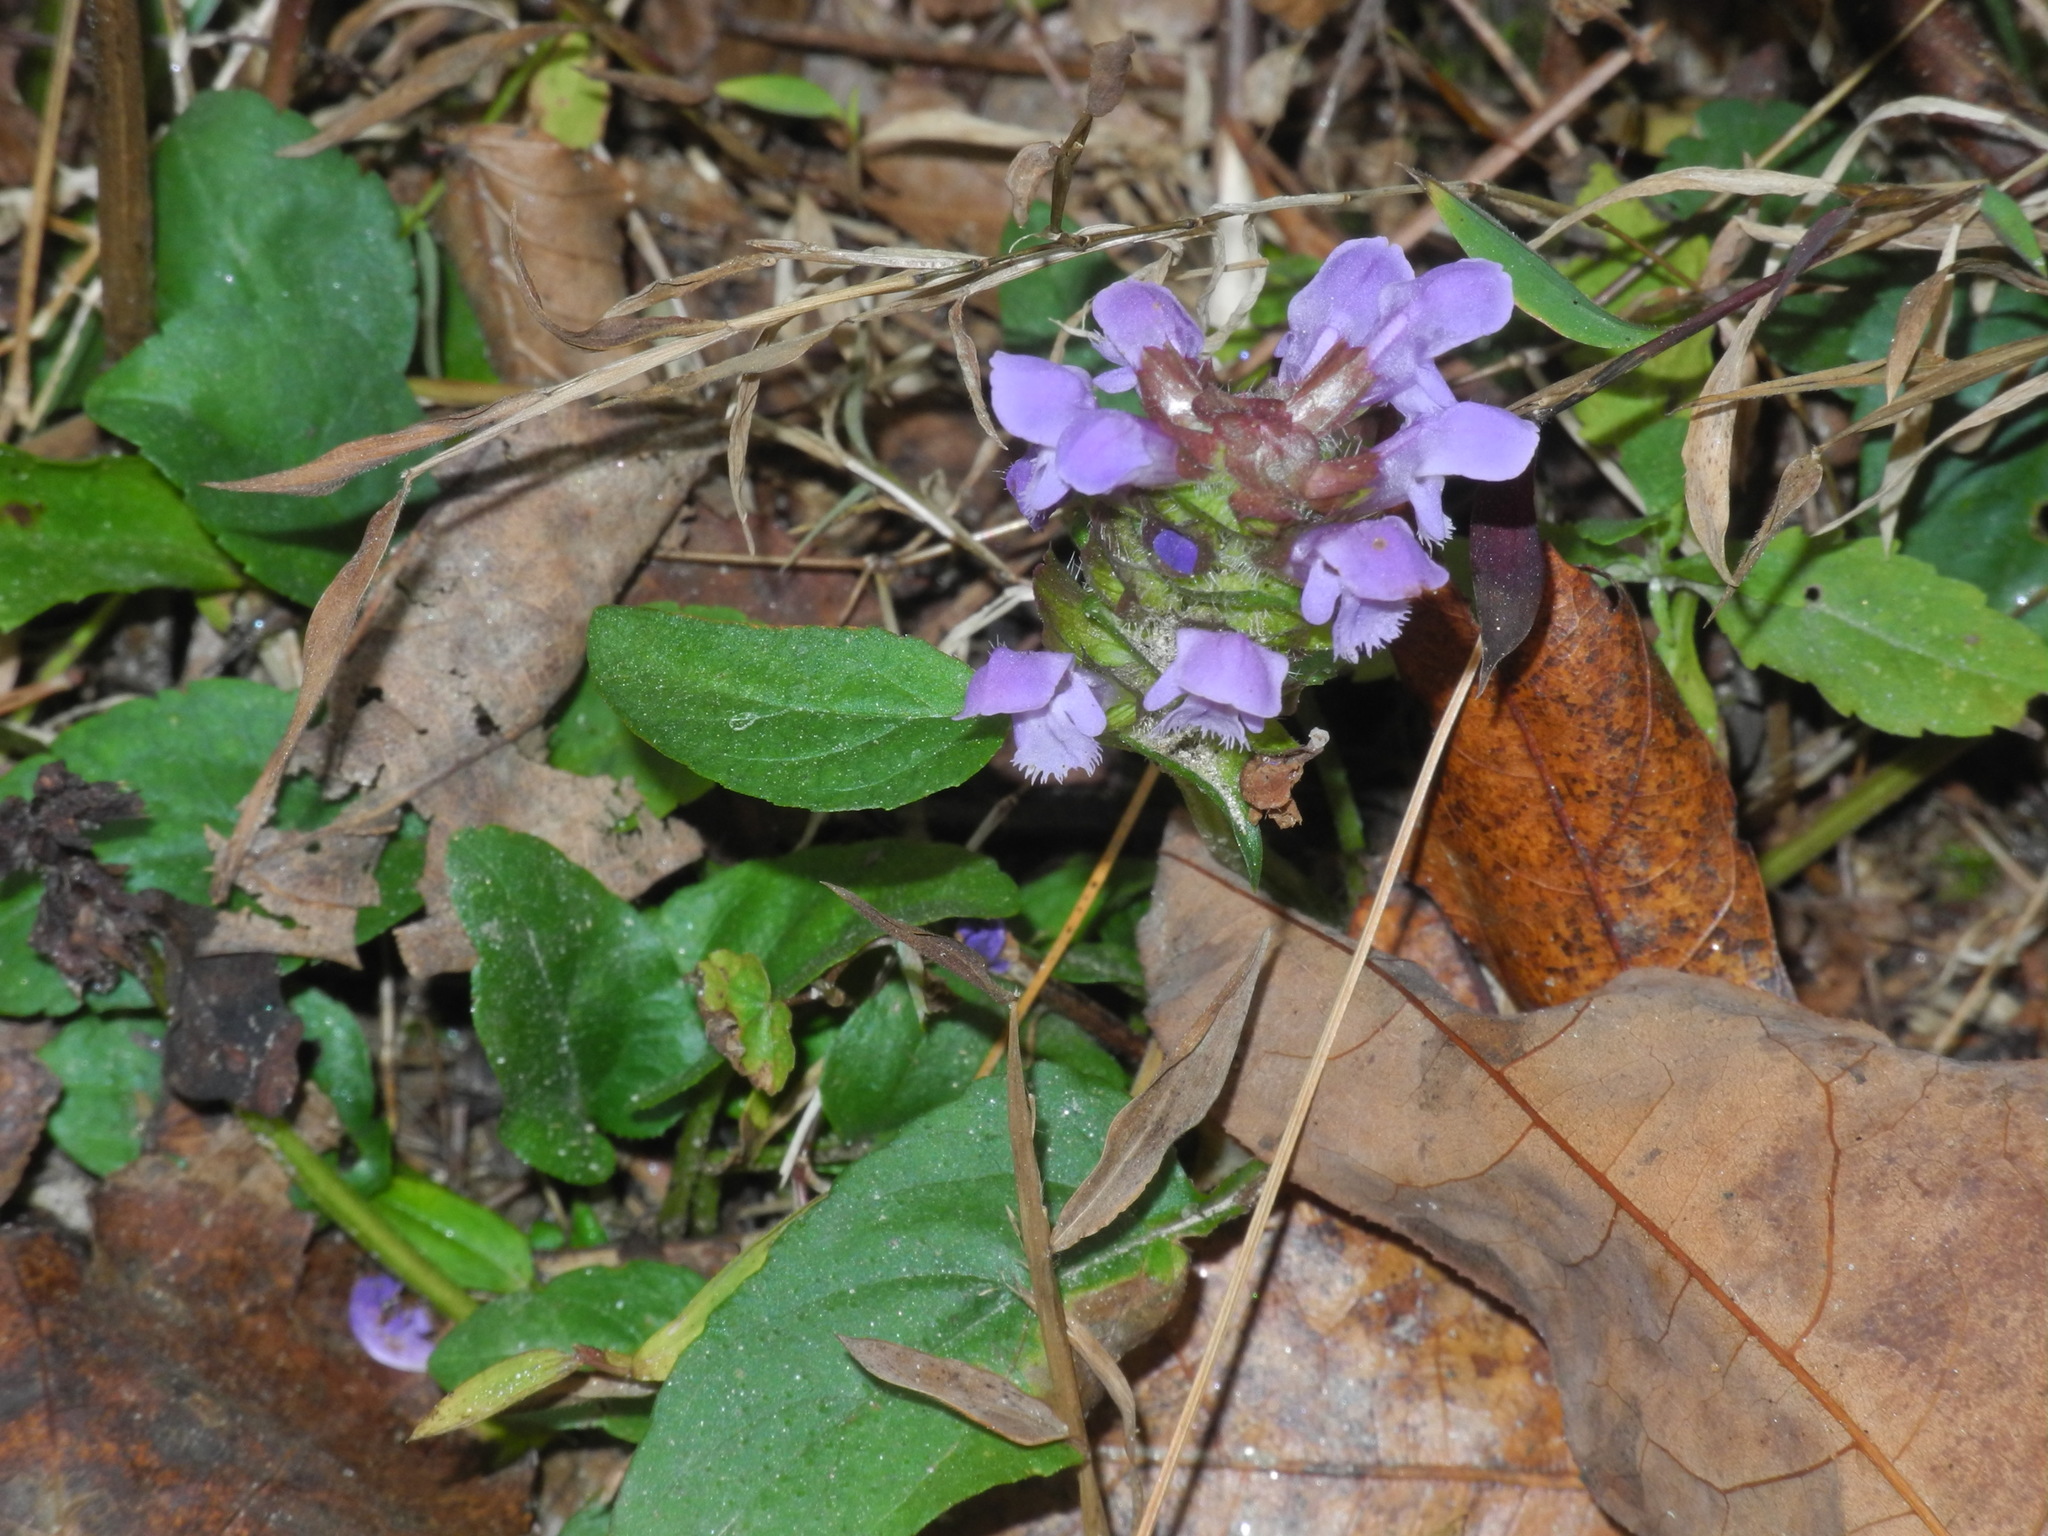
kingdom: Plantae
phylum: Tracheophyta
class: Magnoliopsida
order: Lamiales
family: Lamiaceae
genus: Prunella
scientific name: Prunella vulgaris
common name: Heal-all
